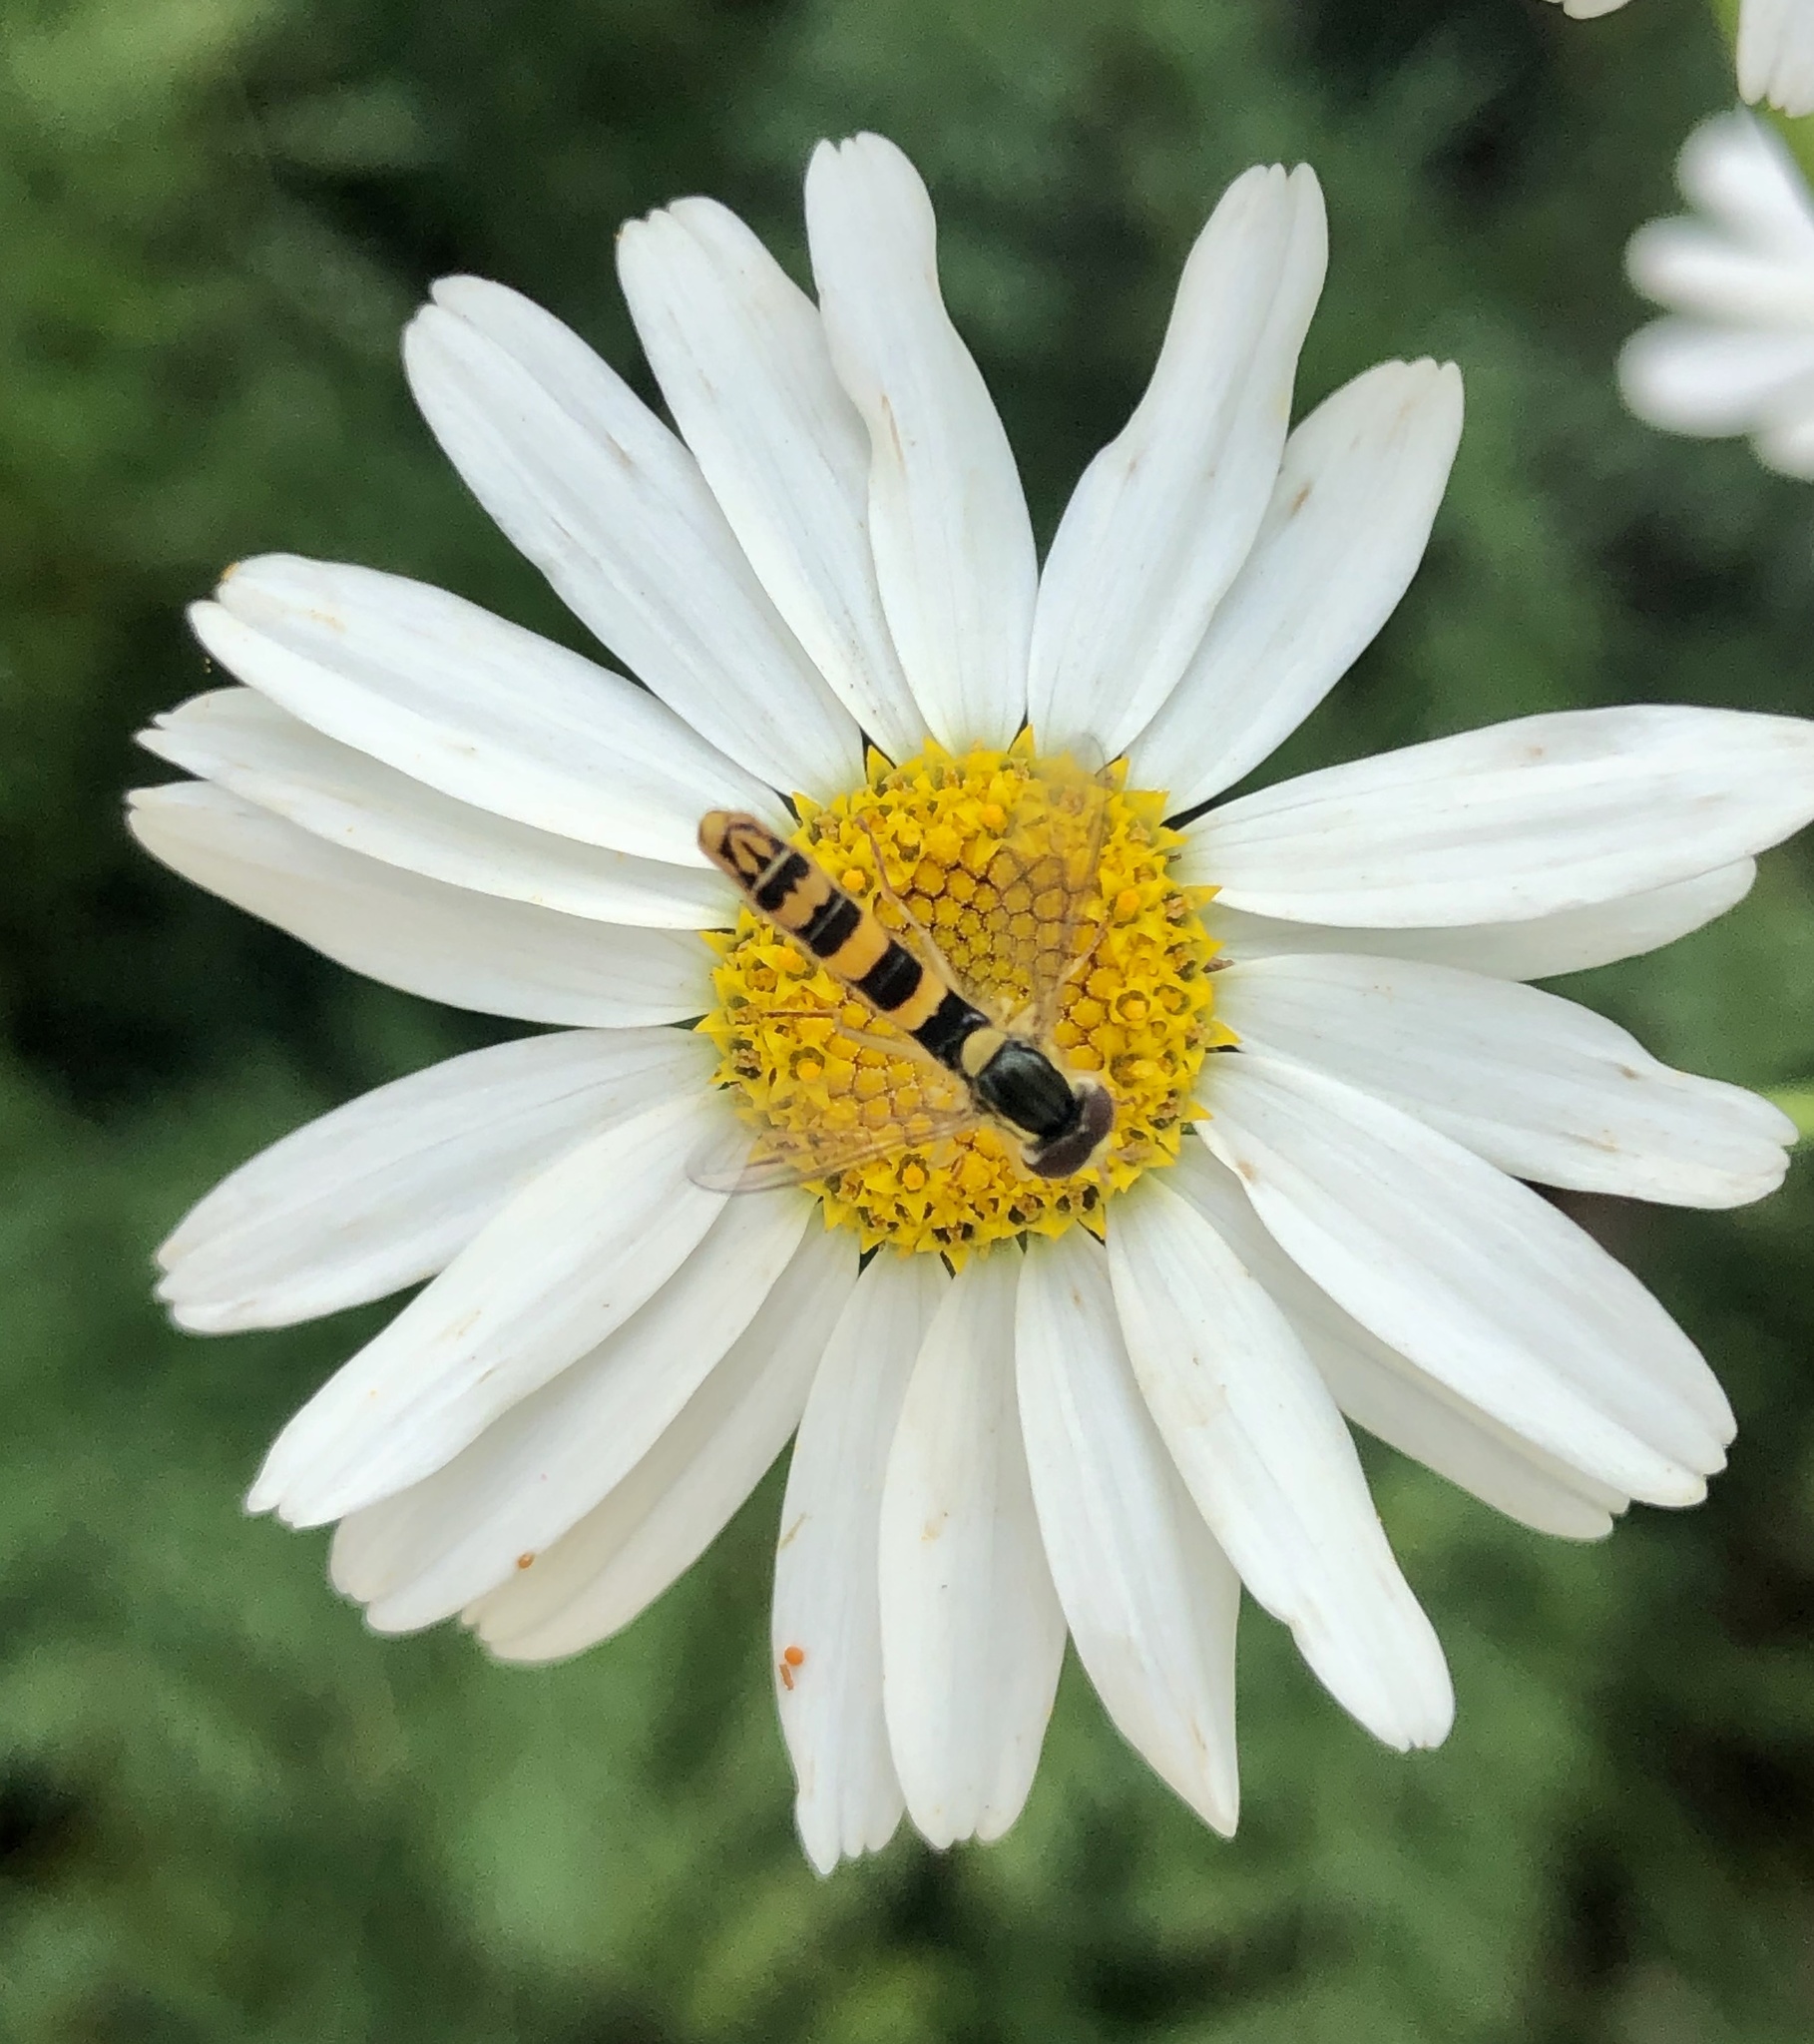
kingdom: Animalia
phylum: Arthropoda
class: Insecta
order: Diptera
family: Syrphidae
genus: Sphaerophoria
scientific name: Sphaerophoria scripta
